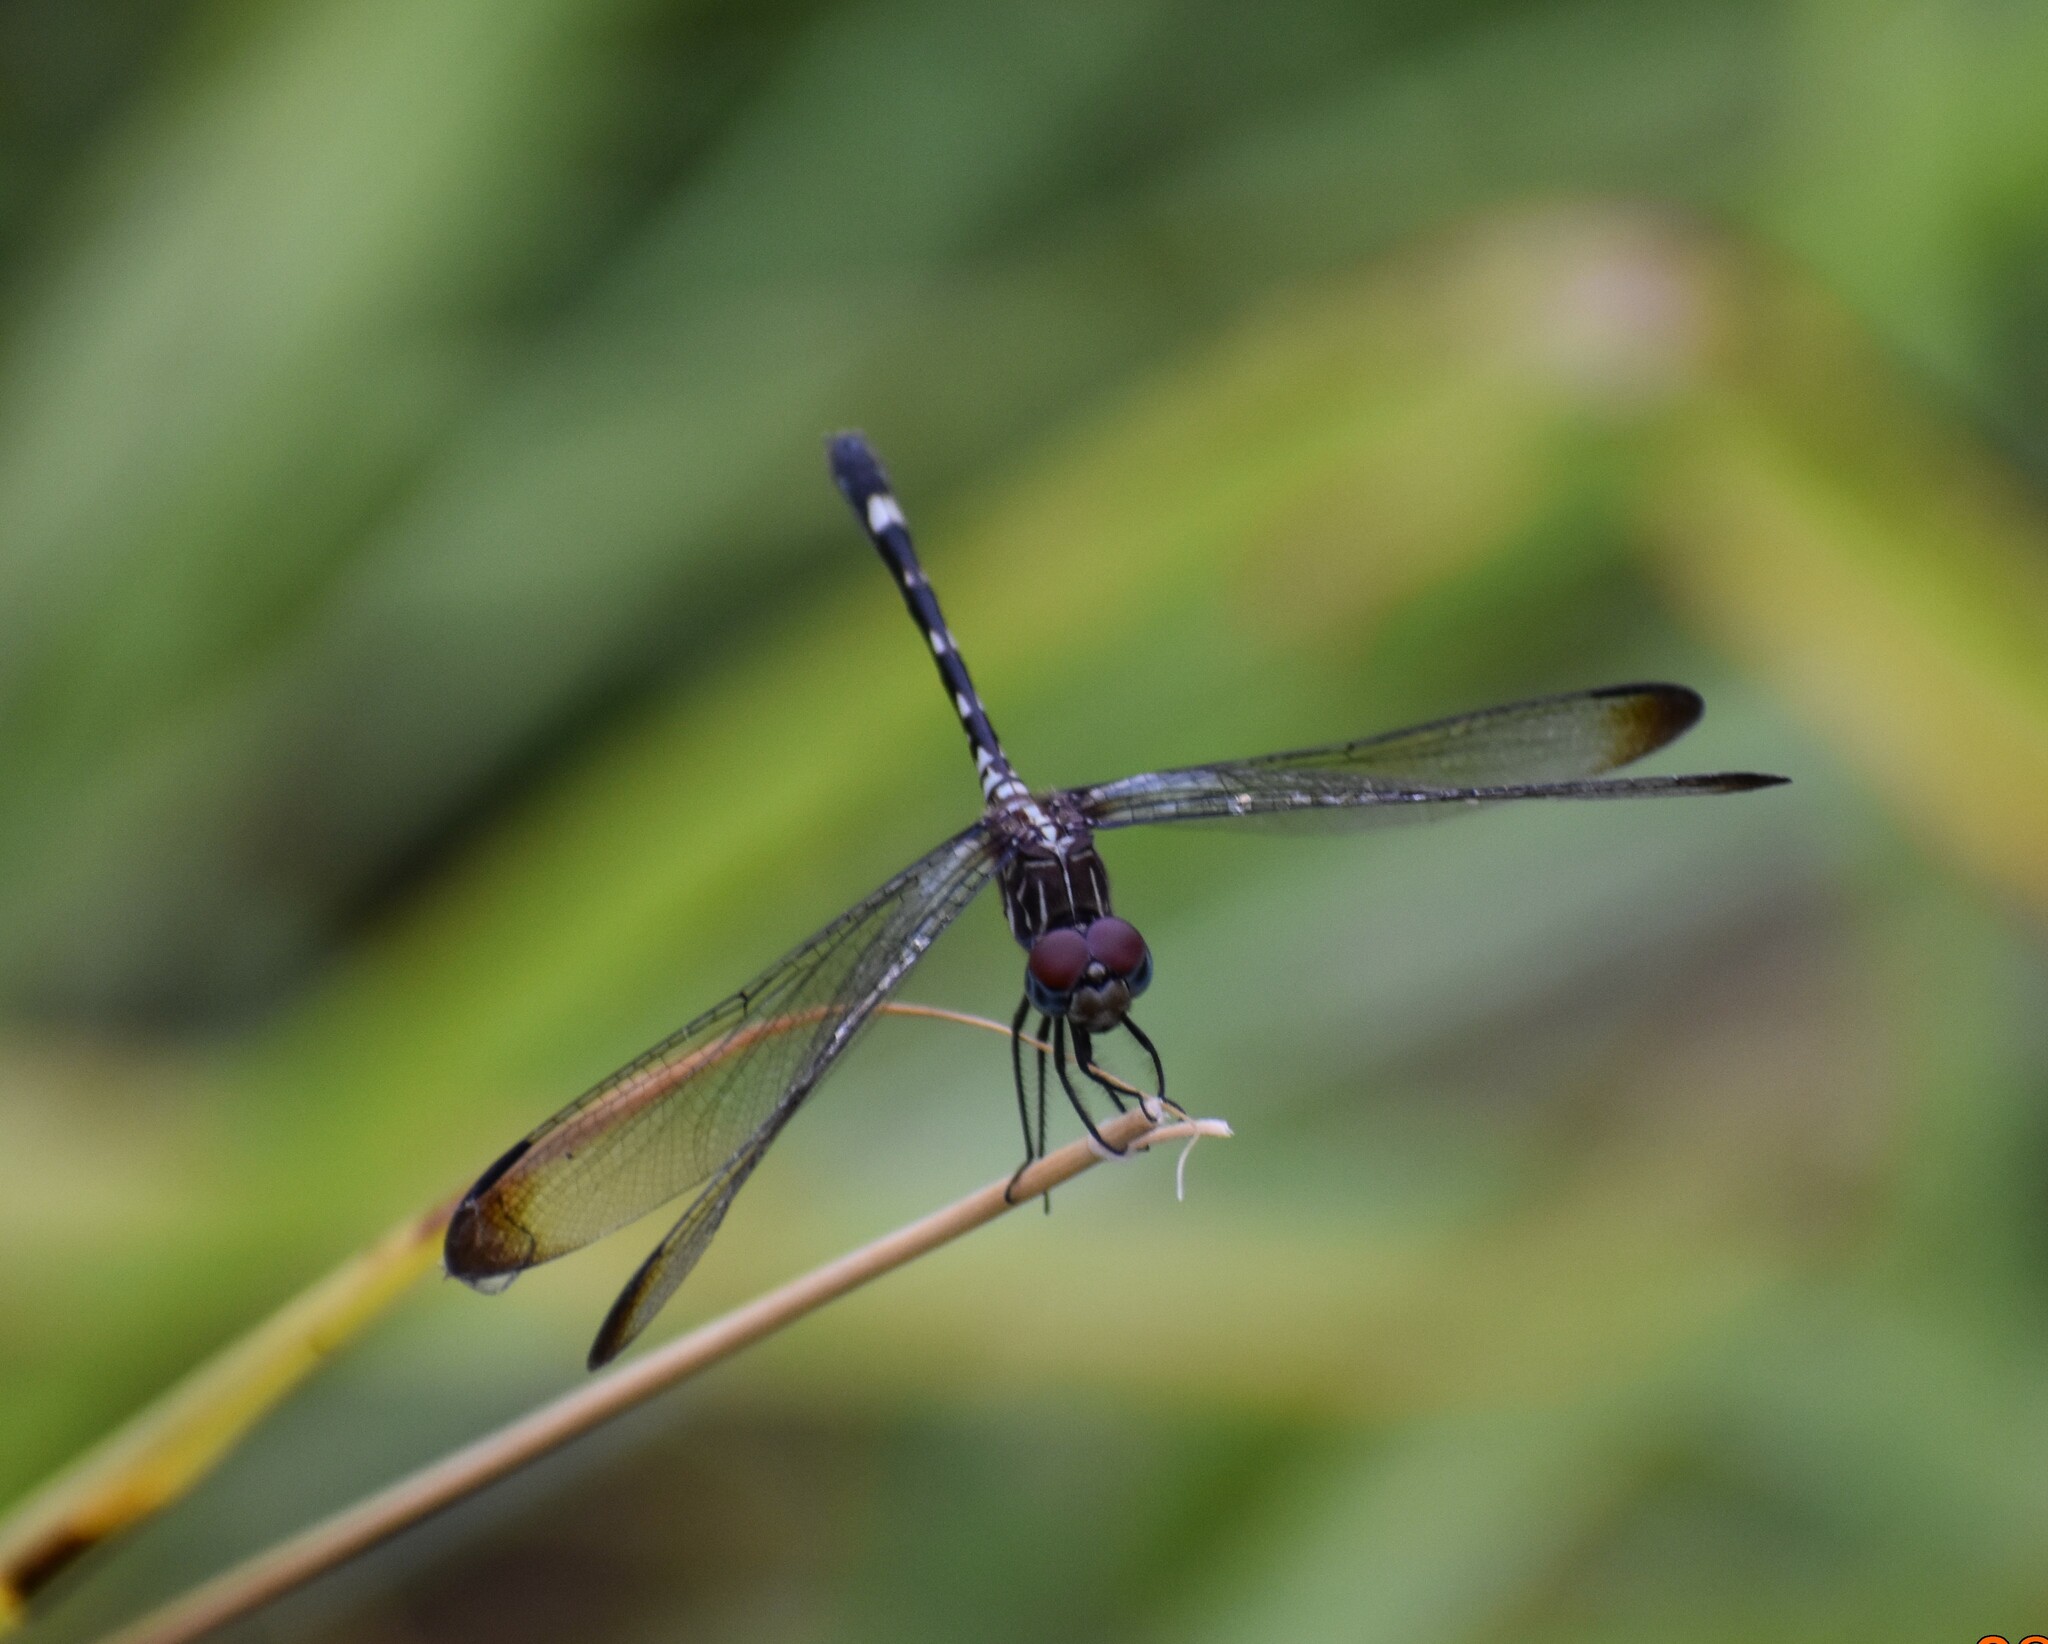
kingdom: Animalia
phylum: Arthropoda
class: Insecta
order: Odonata
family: Libellulidae
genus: Dythemis
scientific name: Dythemis velox
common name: Swift setwing
